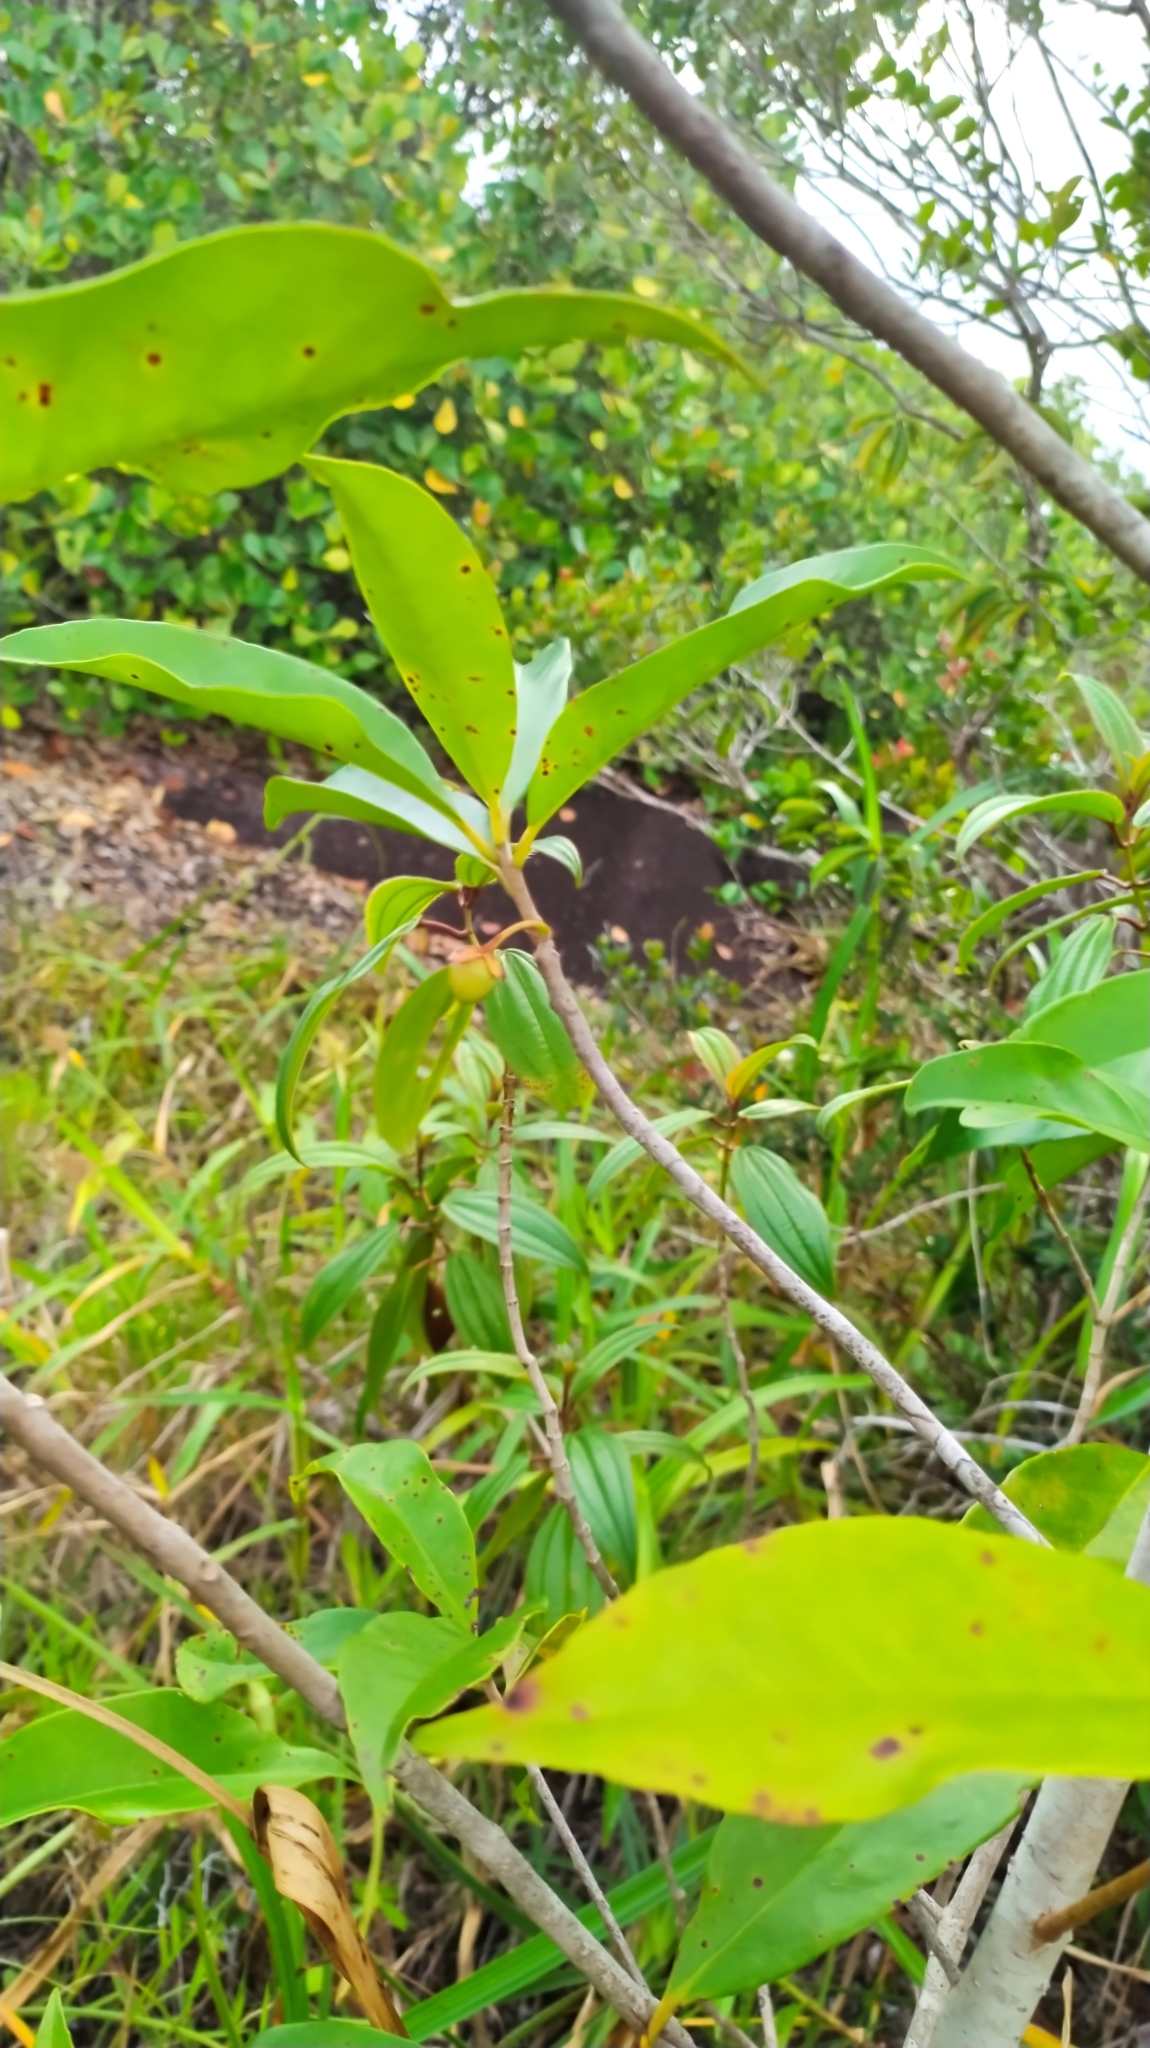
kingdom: Plantae
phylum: Tracheophyta
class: Magnoliopsida
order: Ericales
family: Pentaphylacaceae
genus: Ternstroemia
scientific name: Ternstroemia dentata
